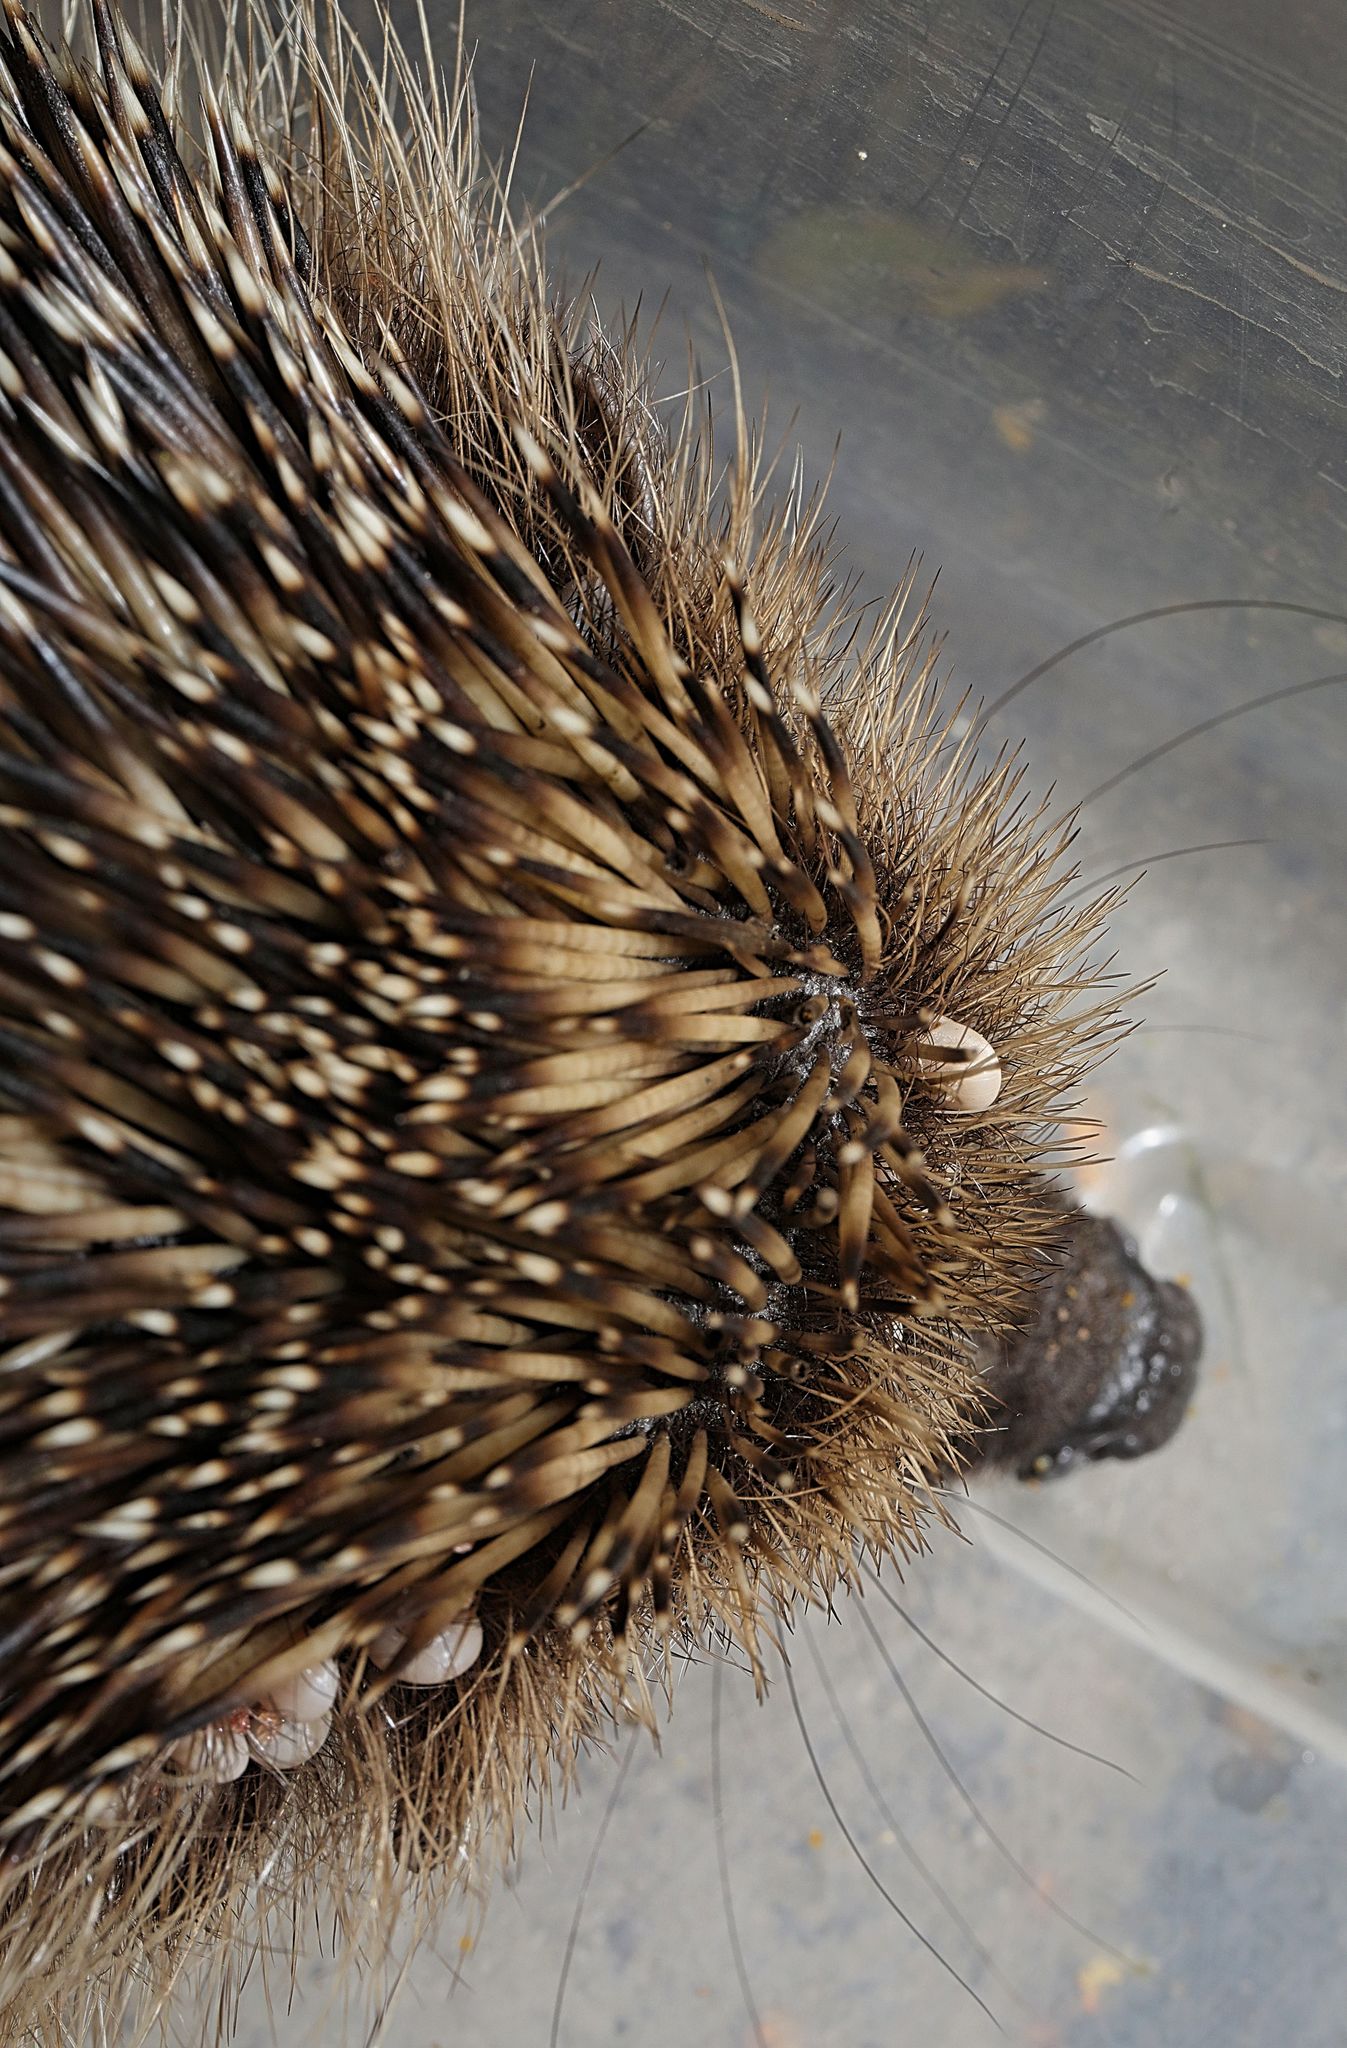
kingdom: Animalia
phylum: Arthropoda
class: Arachnida
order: Ixodida
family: Ixodidae
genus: Ixodes
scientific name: Ixodes hexagonus
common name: Hedgehog tick
